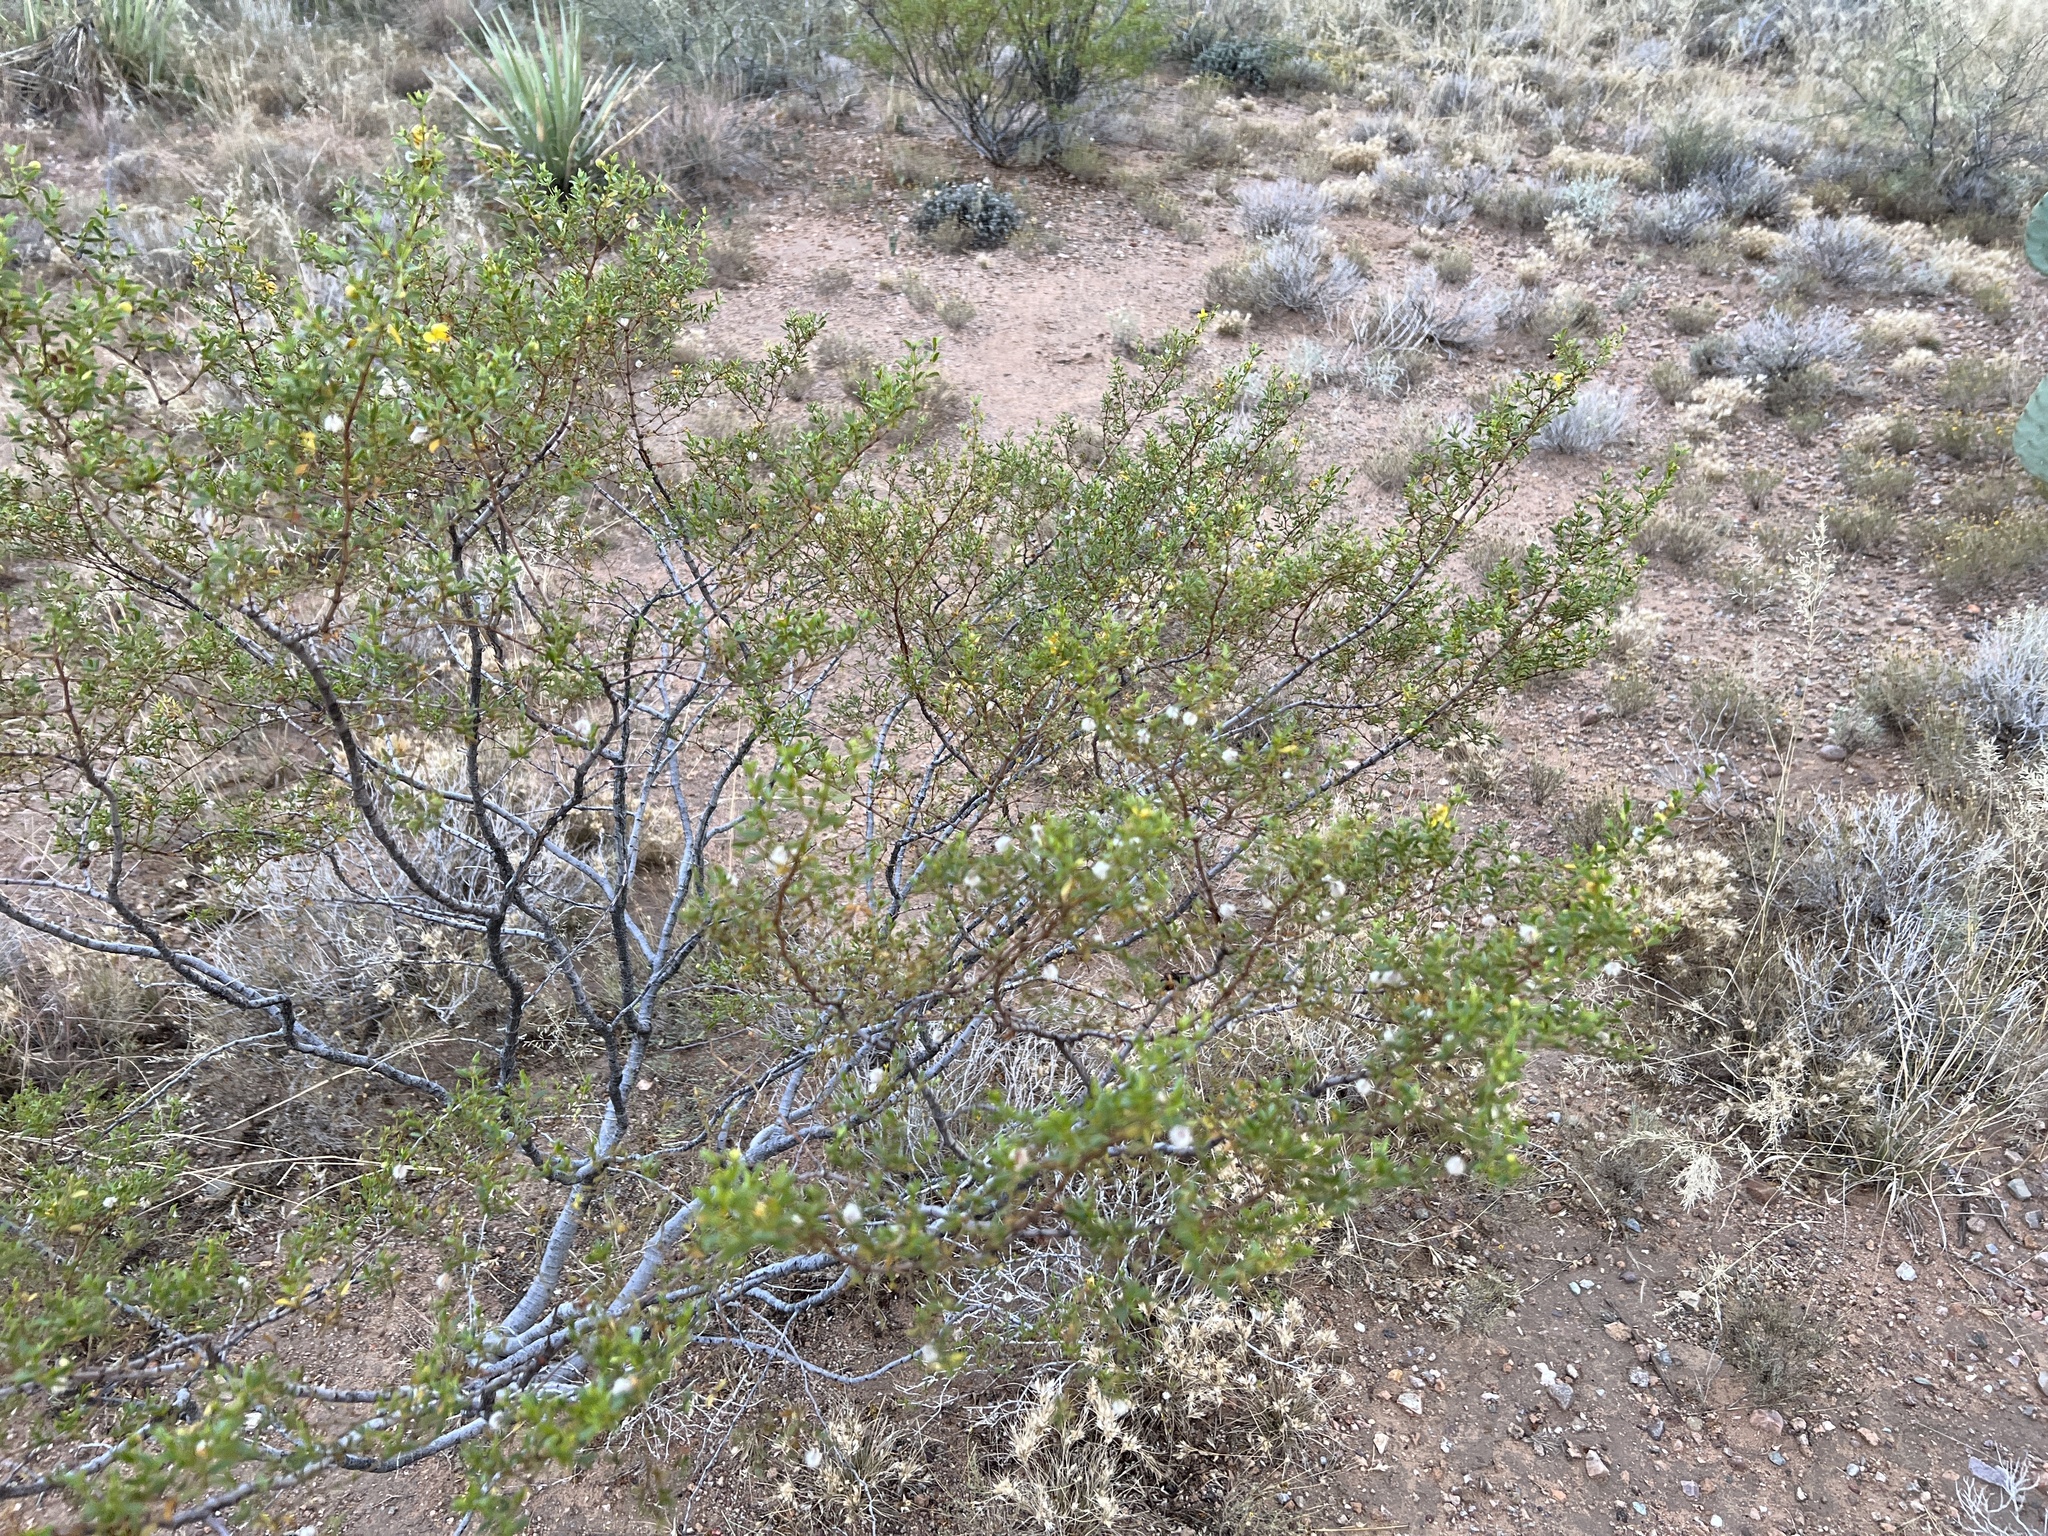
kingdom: Plantae
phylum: Tracheophyta
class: Magnoliopsida
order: Zygophyllales
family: Zygophyllaceae
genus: Larrea
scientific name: Larrea tridentata
